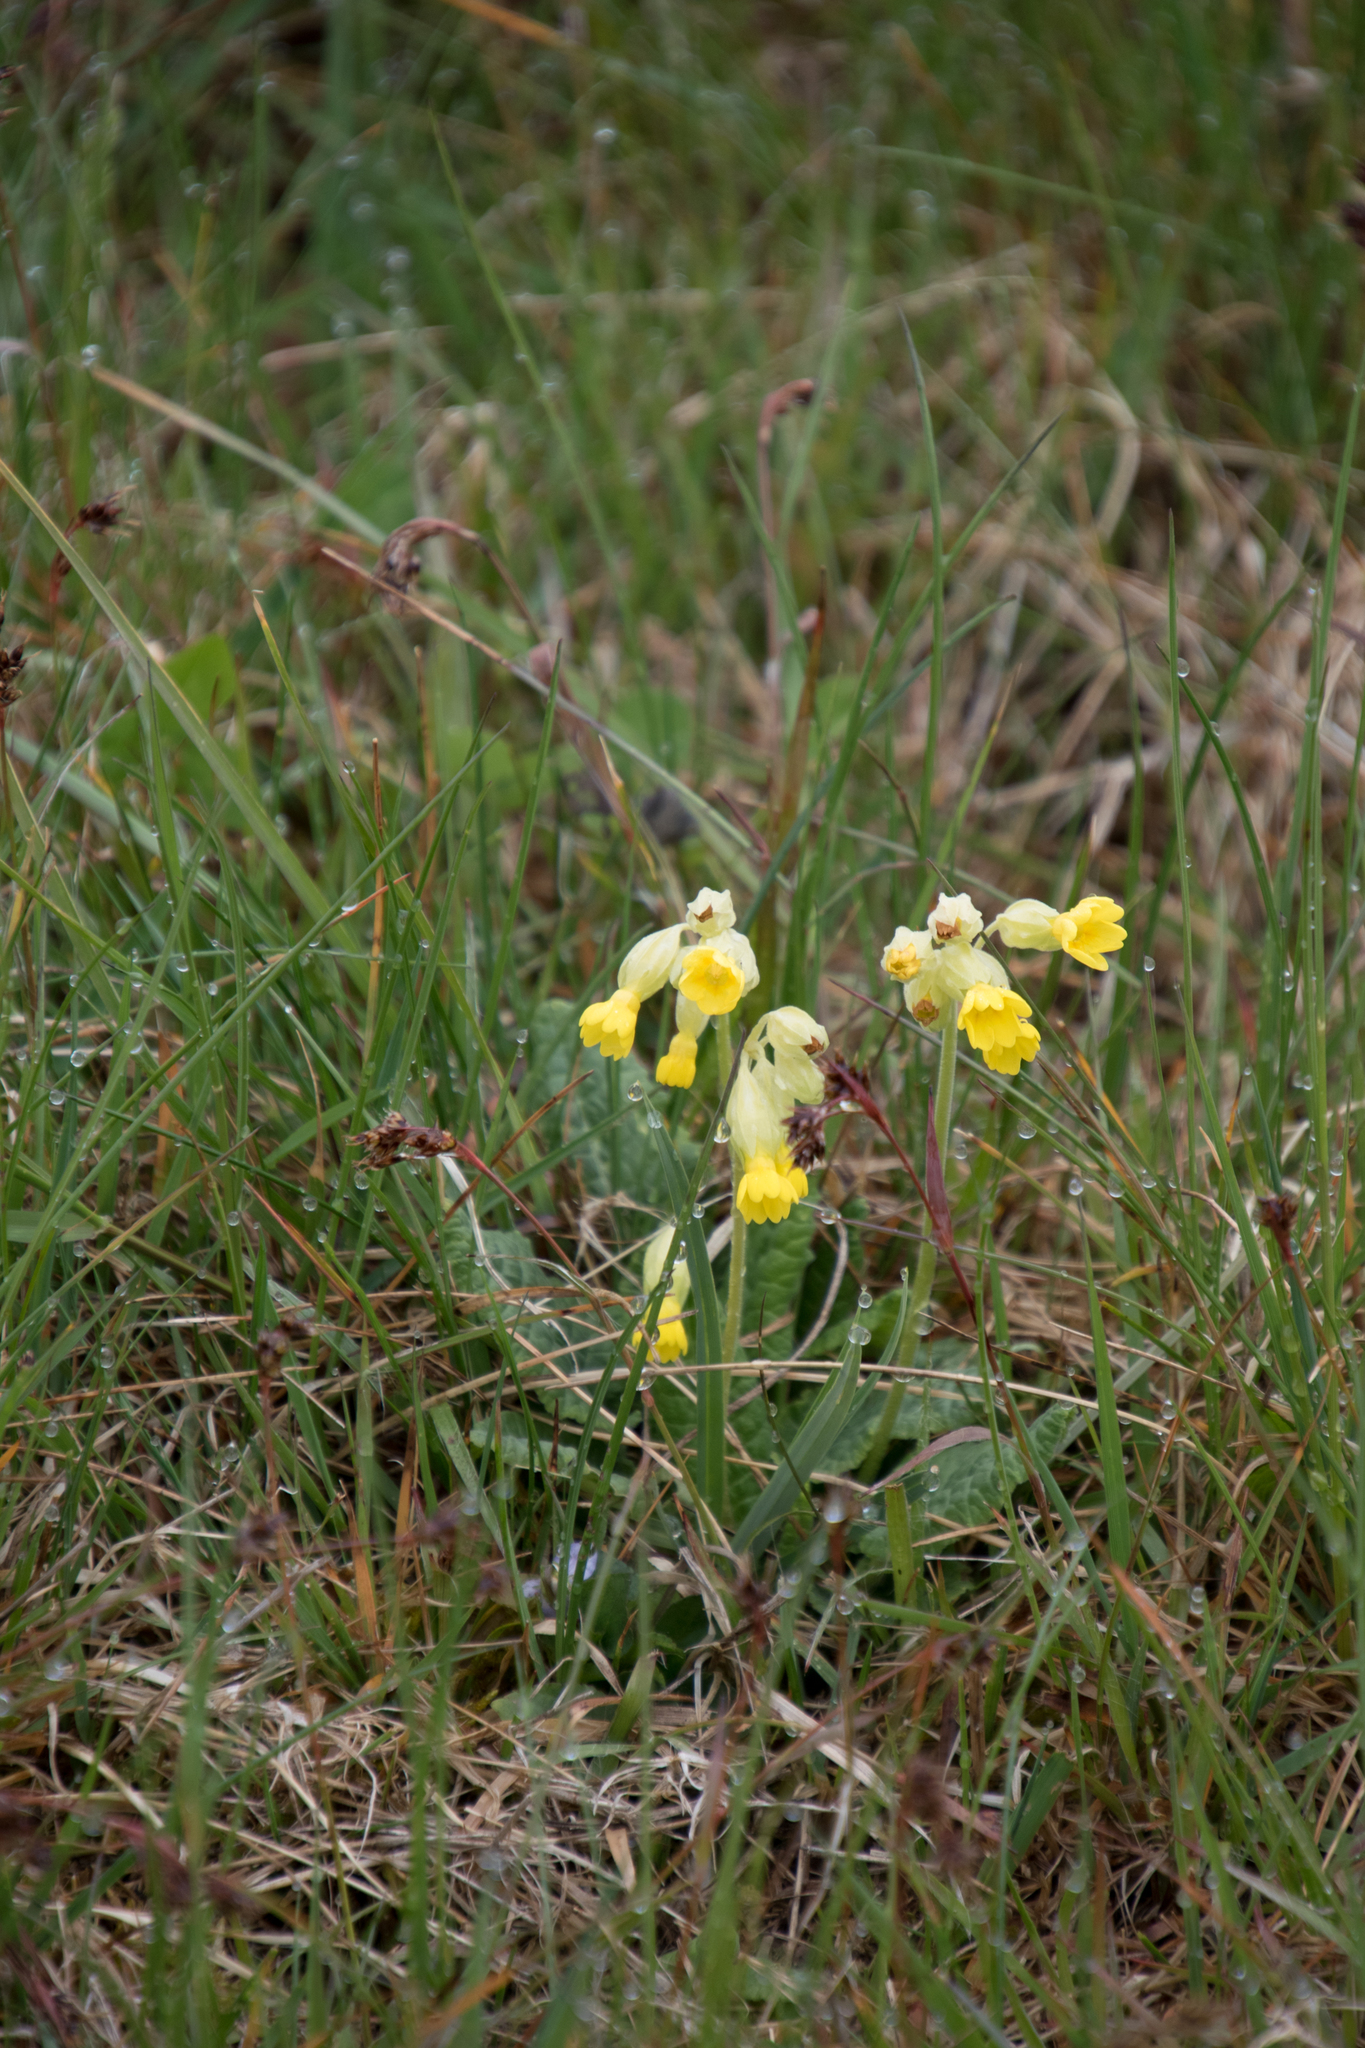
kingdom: Plantae
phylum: Tracheophyta
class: Magnoliopsida
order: Ericales
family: Primulaceae
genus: Primula
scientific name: Primula veris
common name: Cowslip
